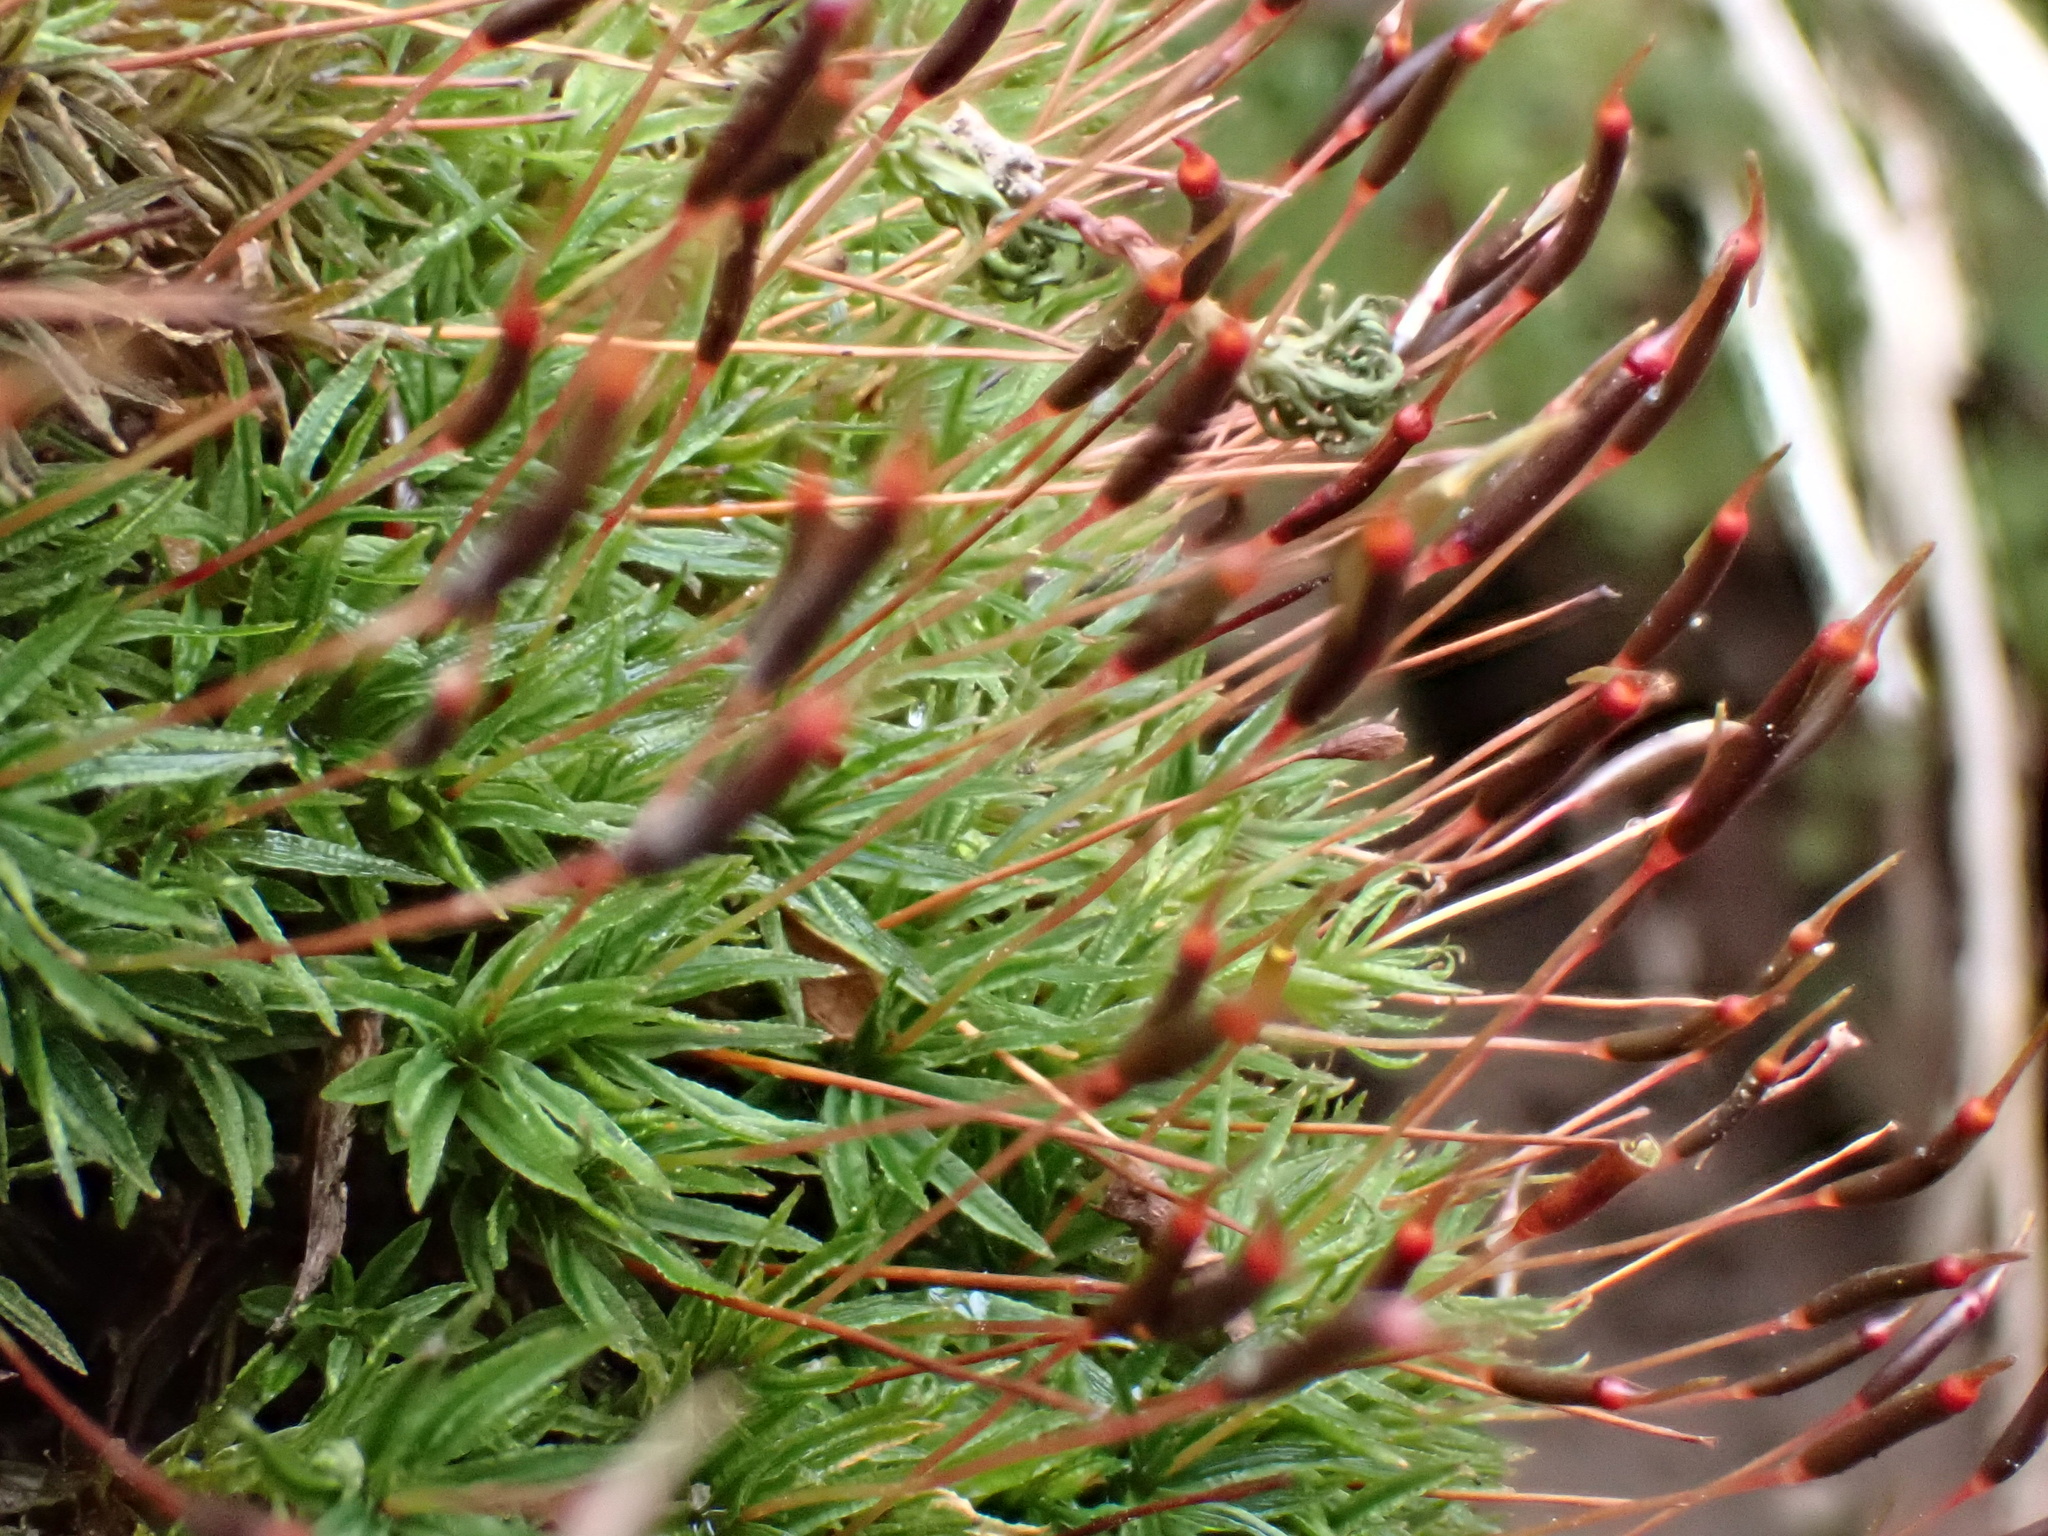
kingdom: Plantae
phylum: Bryophyta
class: Polytrichopsida
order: Polytrichales
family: Polytrichaceae
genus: Atrichum
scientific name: Atrichum angustatum
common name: Lesser smoothcap
